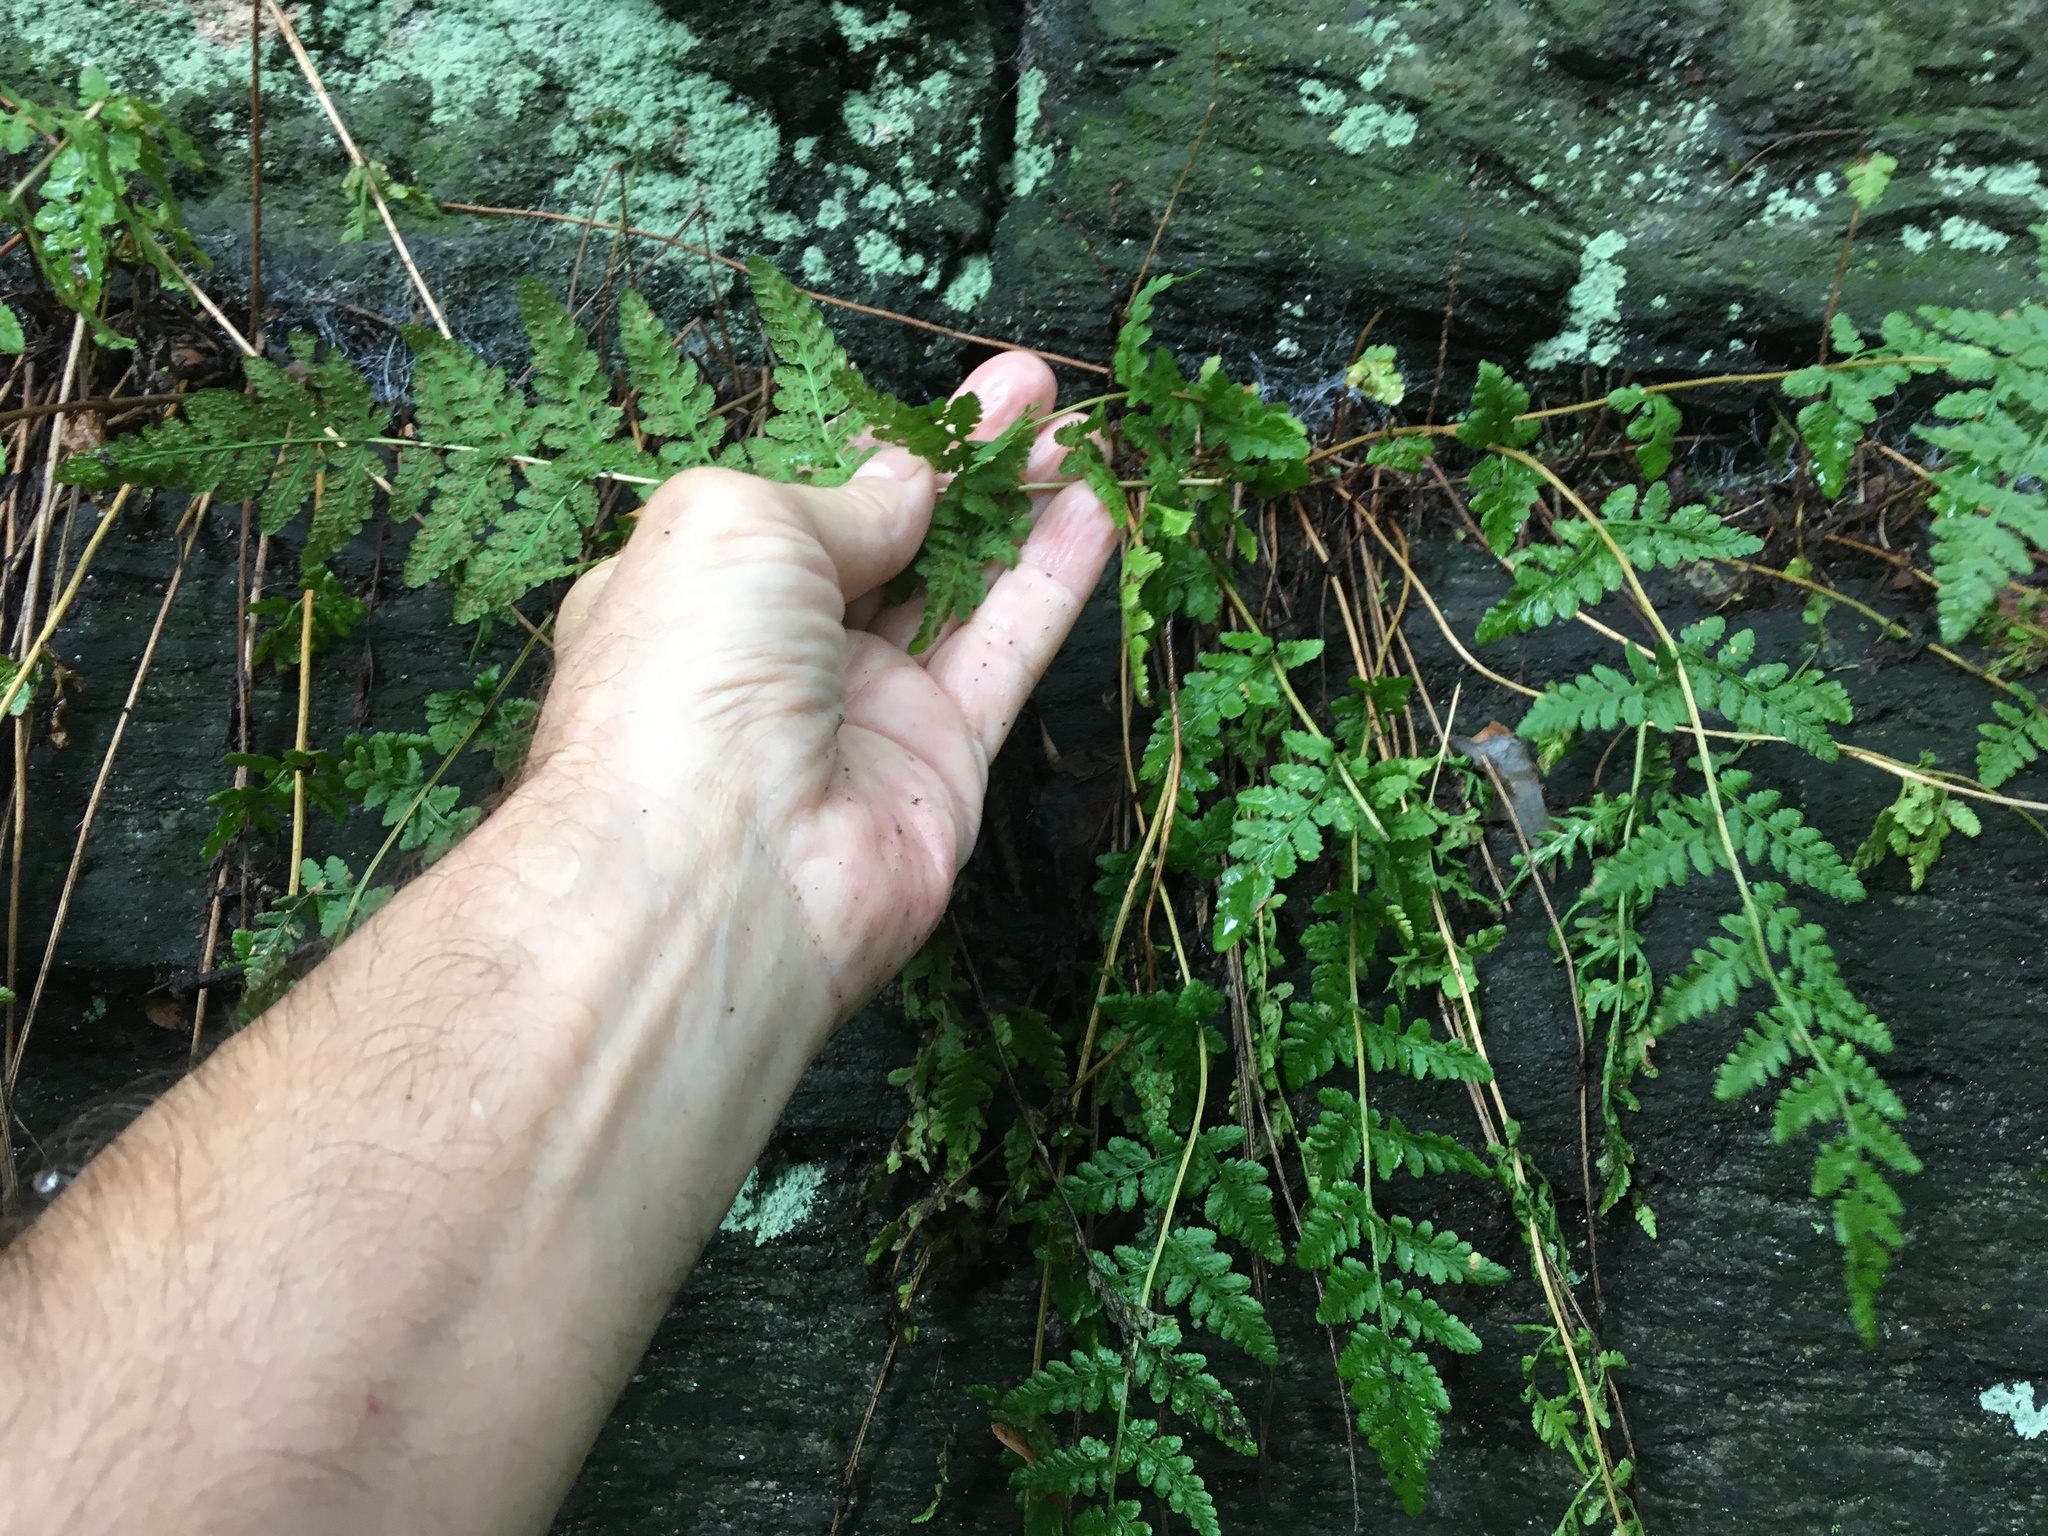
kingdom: Plantae
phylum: Tracheophyta
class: Polypodiopsida
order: Polypodiales
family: Woodsiaceae
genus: Physematium
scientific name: Physematium obtusum
